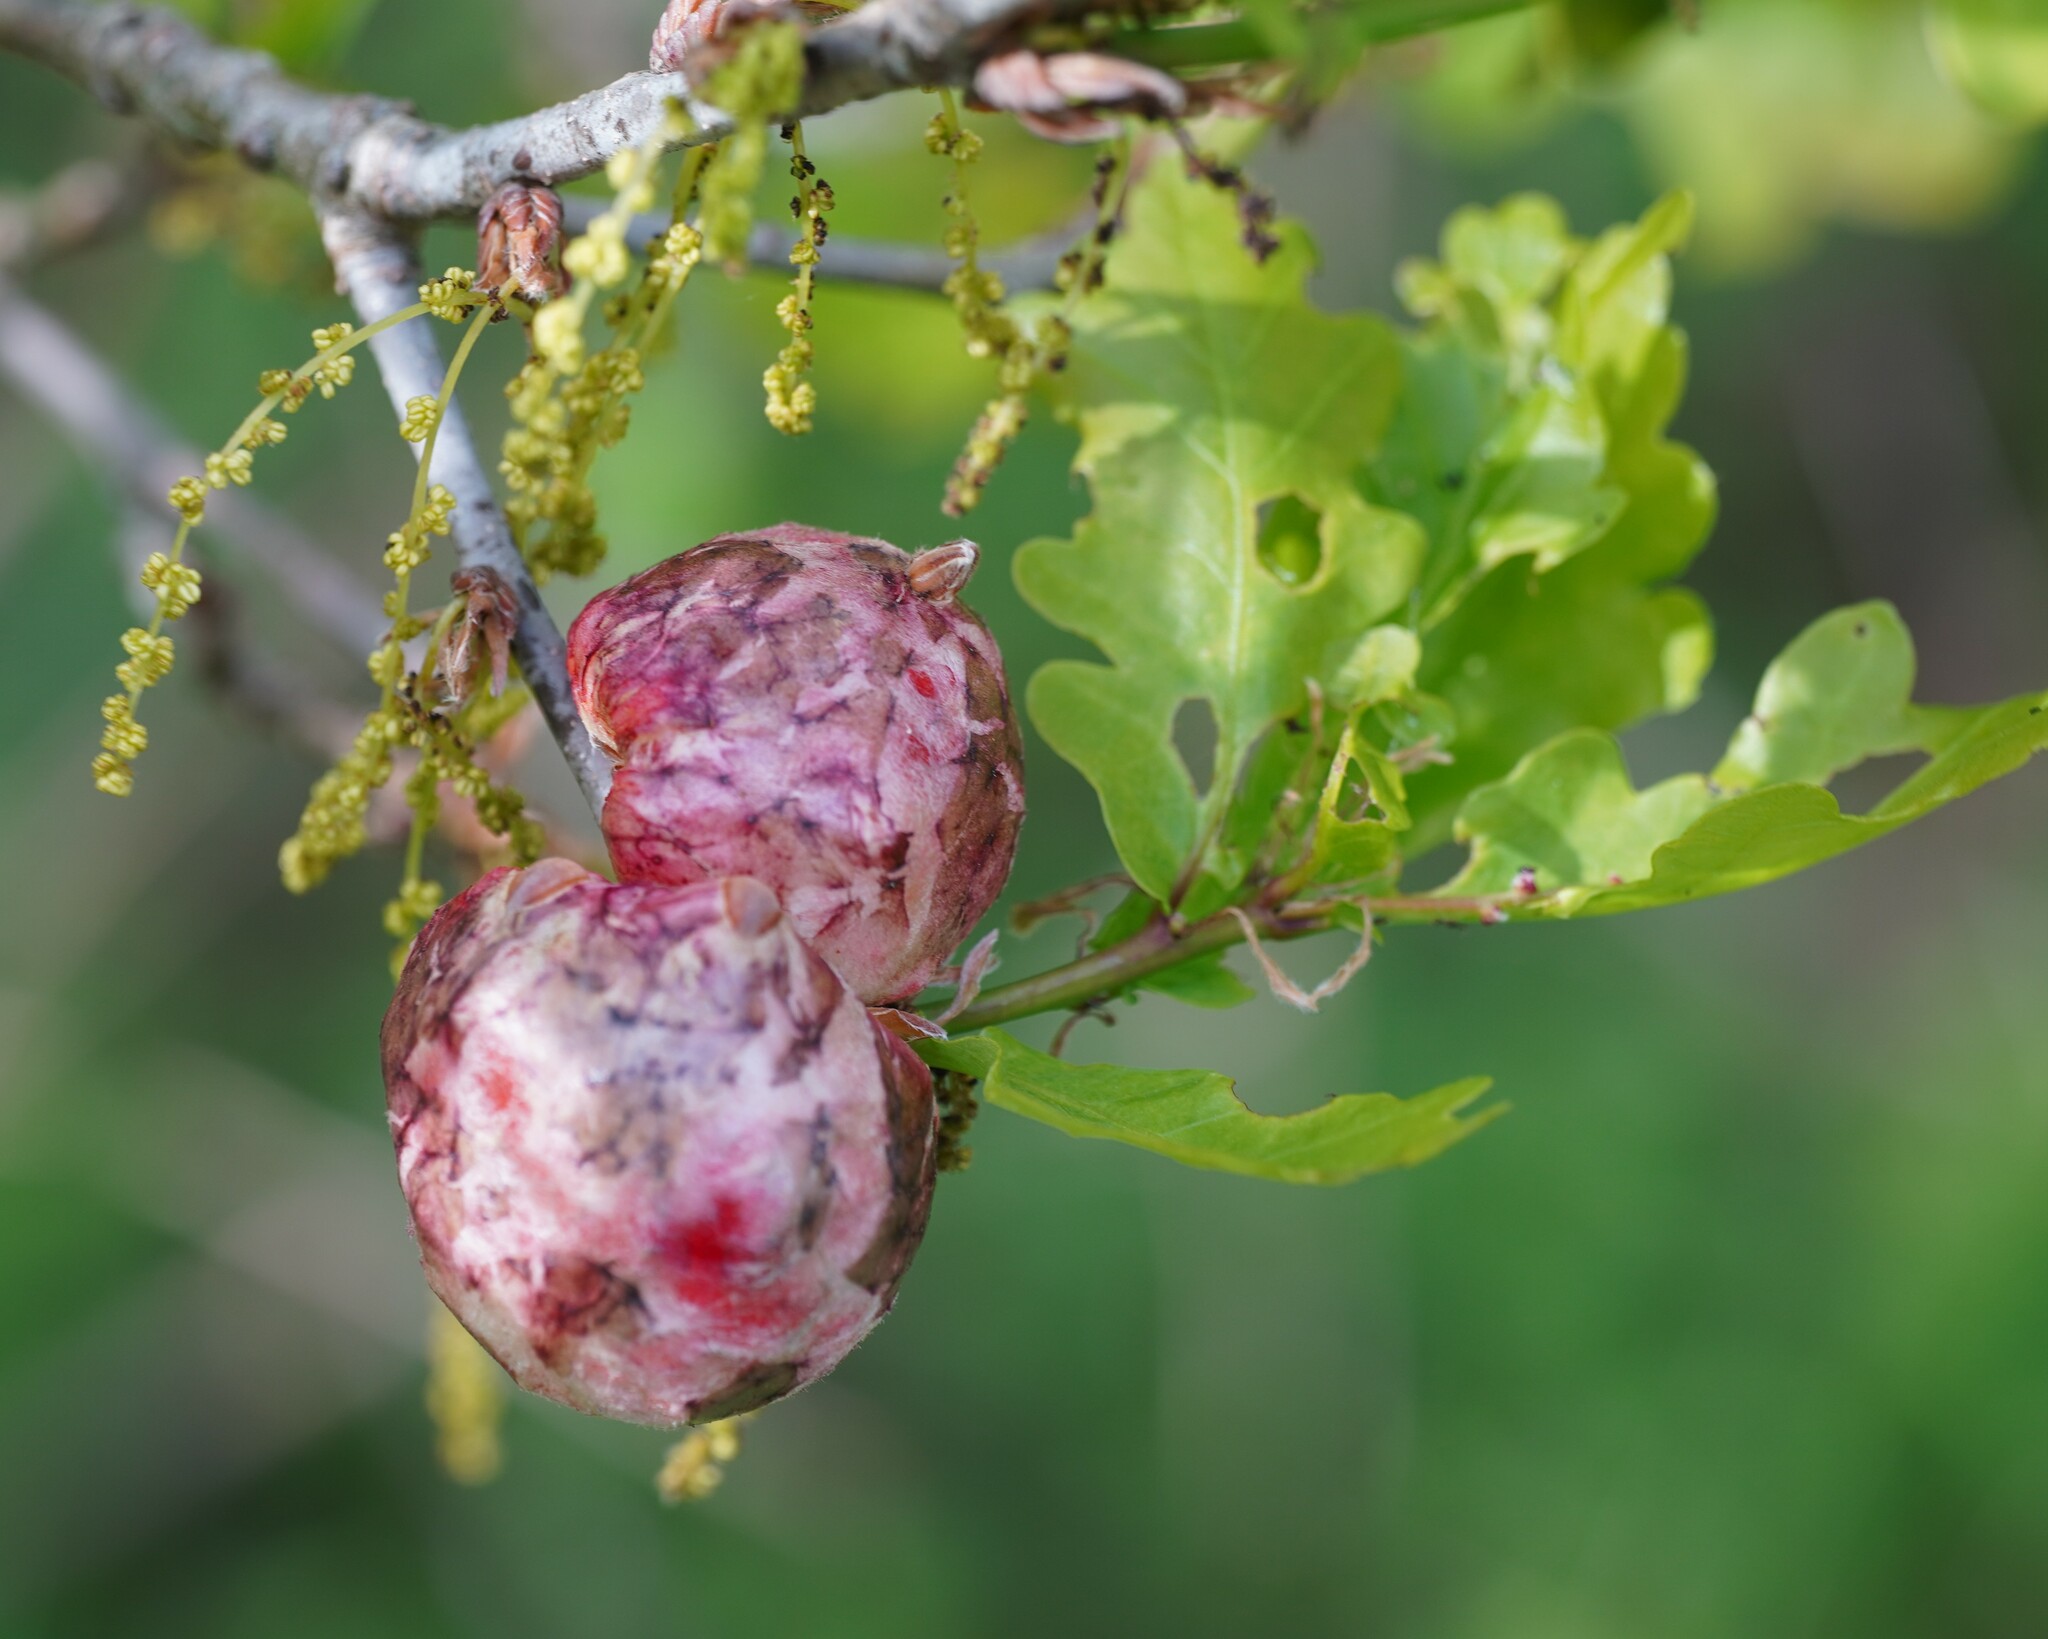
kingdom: Animalia
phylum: Arthropoda
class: Insecta
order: Hymenoptera
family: Cynipidae
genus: Biorhiza
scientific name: Biorhiza pallida
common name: Oak apple
